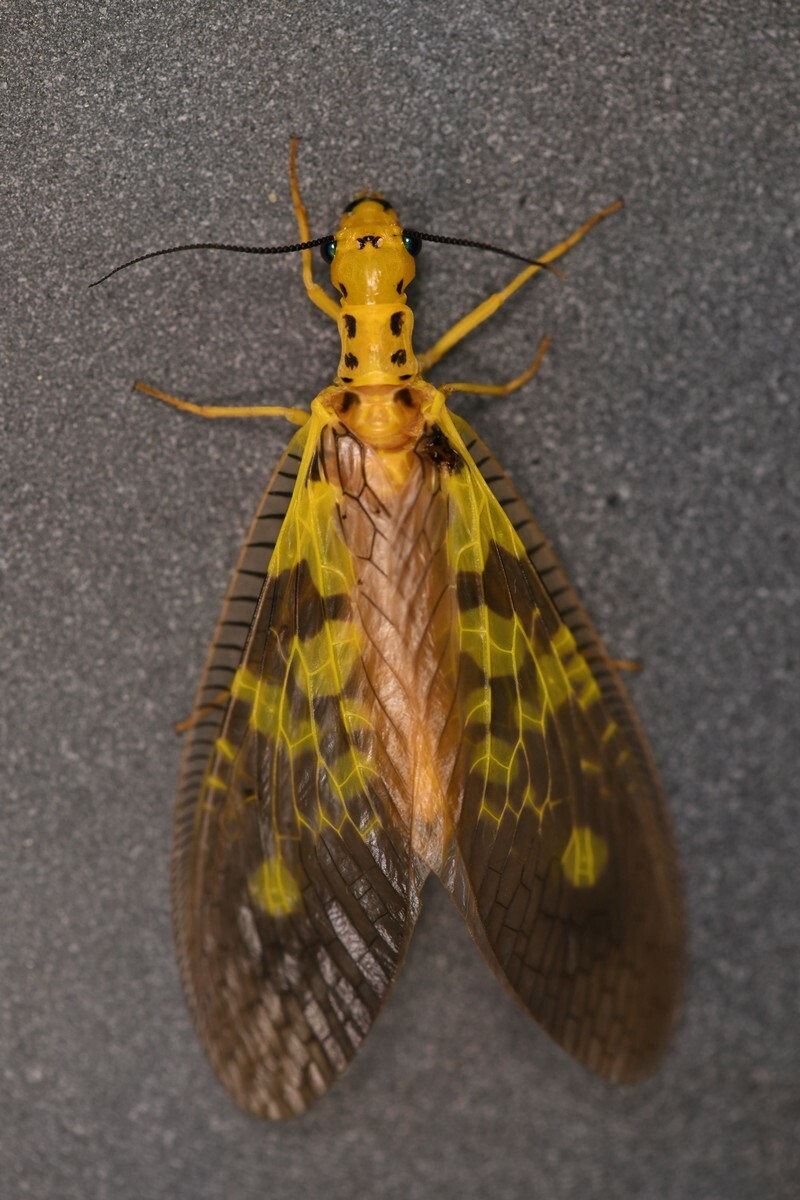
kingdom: Animalia
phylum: Arthropoda
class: Insecta
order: Megaloptera
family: Corydalidae
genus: Protohermes
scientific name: Protohermes sinuolatus
